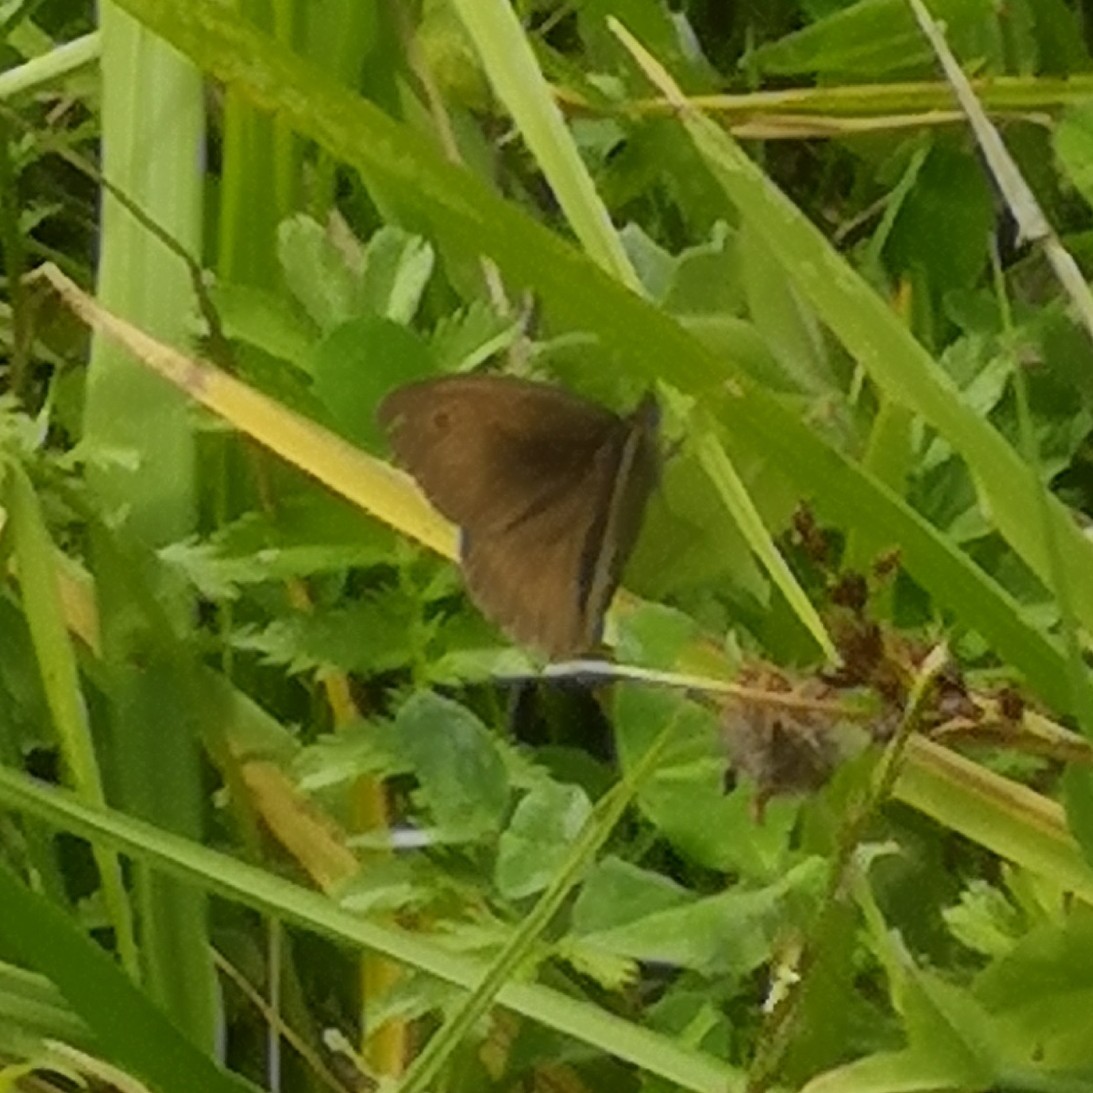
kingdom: Animalia
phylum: Arthropoda
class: Insecta
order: Lepidoptera
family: Nymphalidae
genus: Maniola
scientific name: Maniola jurtina
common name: Meadow brown
